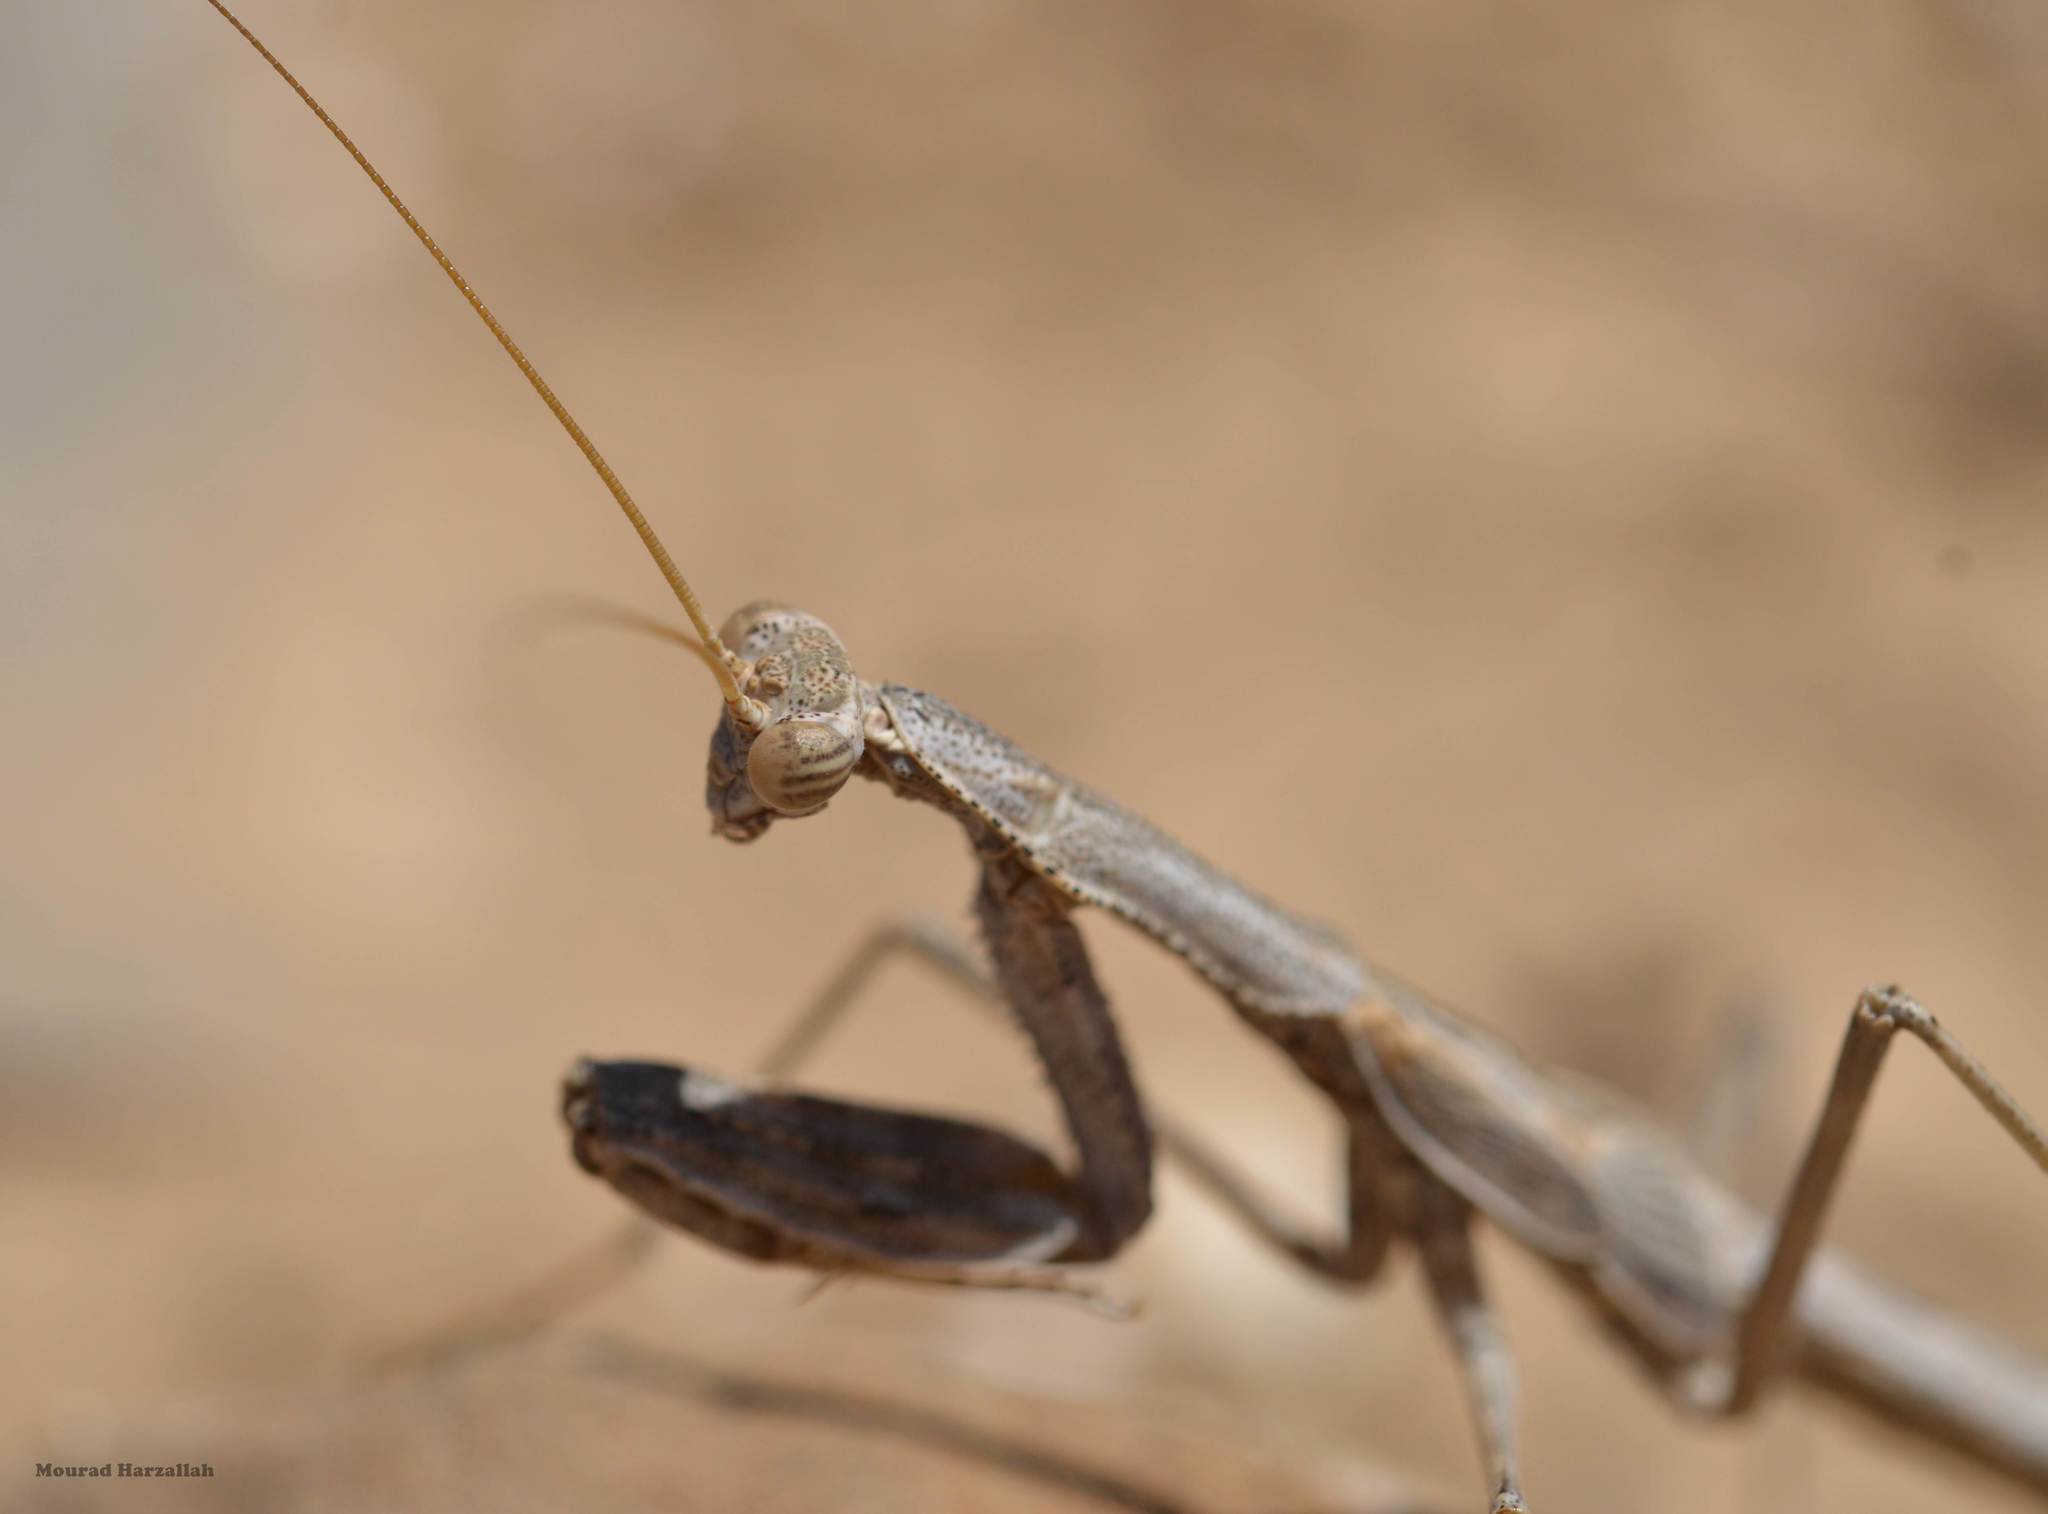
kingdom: Animalia
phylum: Arthropoda
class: Insecta
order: Mantodea
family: Rivetinidae
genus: Rivetina
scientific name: Rivetina baetica
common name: Baetic ground mantis
